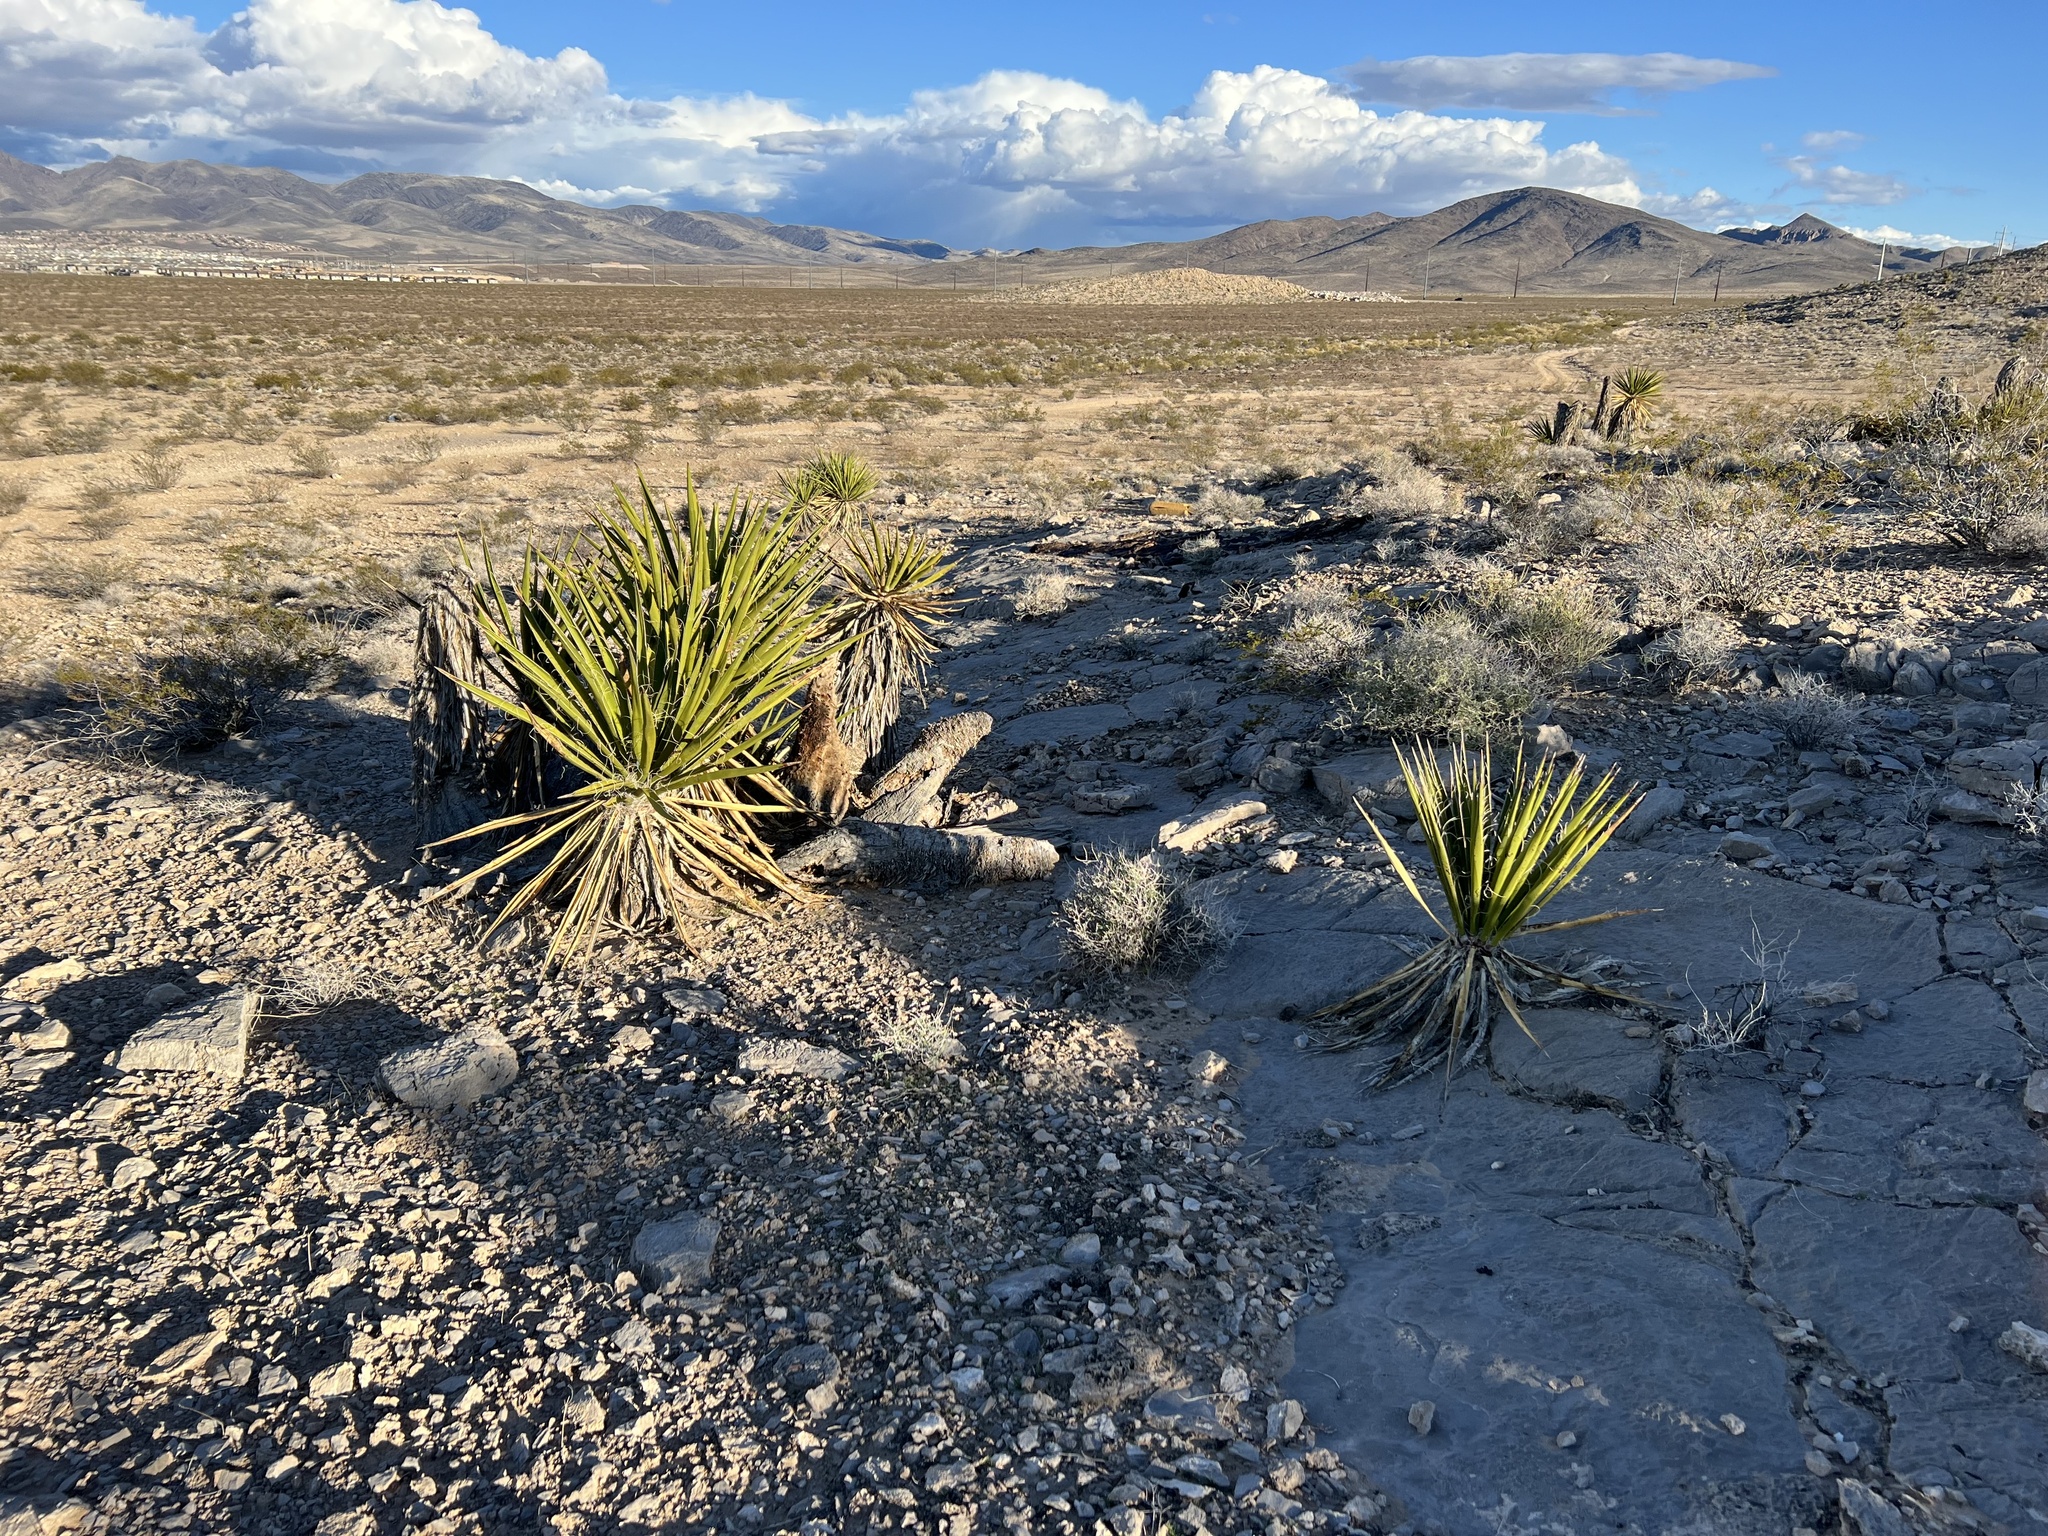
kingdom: Plantae
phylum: Tracheophyta
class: Liliopsida
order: Asparagales
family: Asparagaceae
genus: Yucca
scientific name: Yucca schidigera
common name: Mojave yucca
